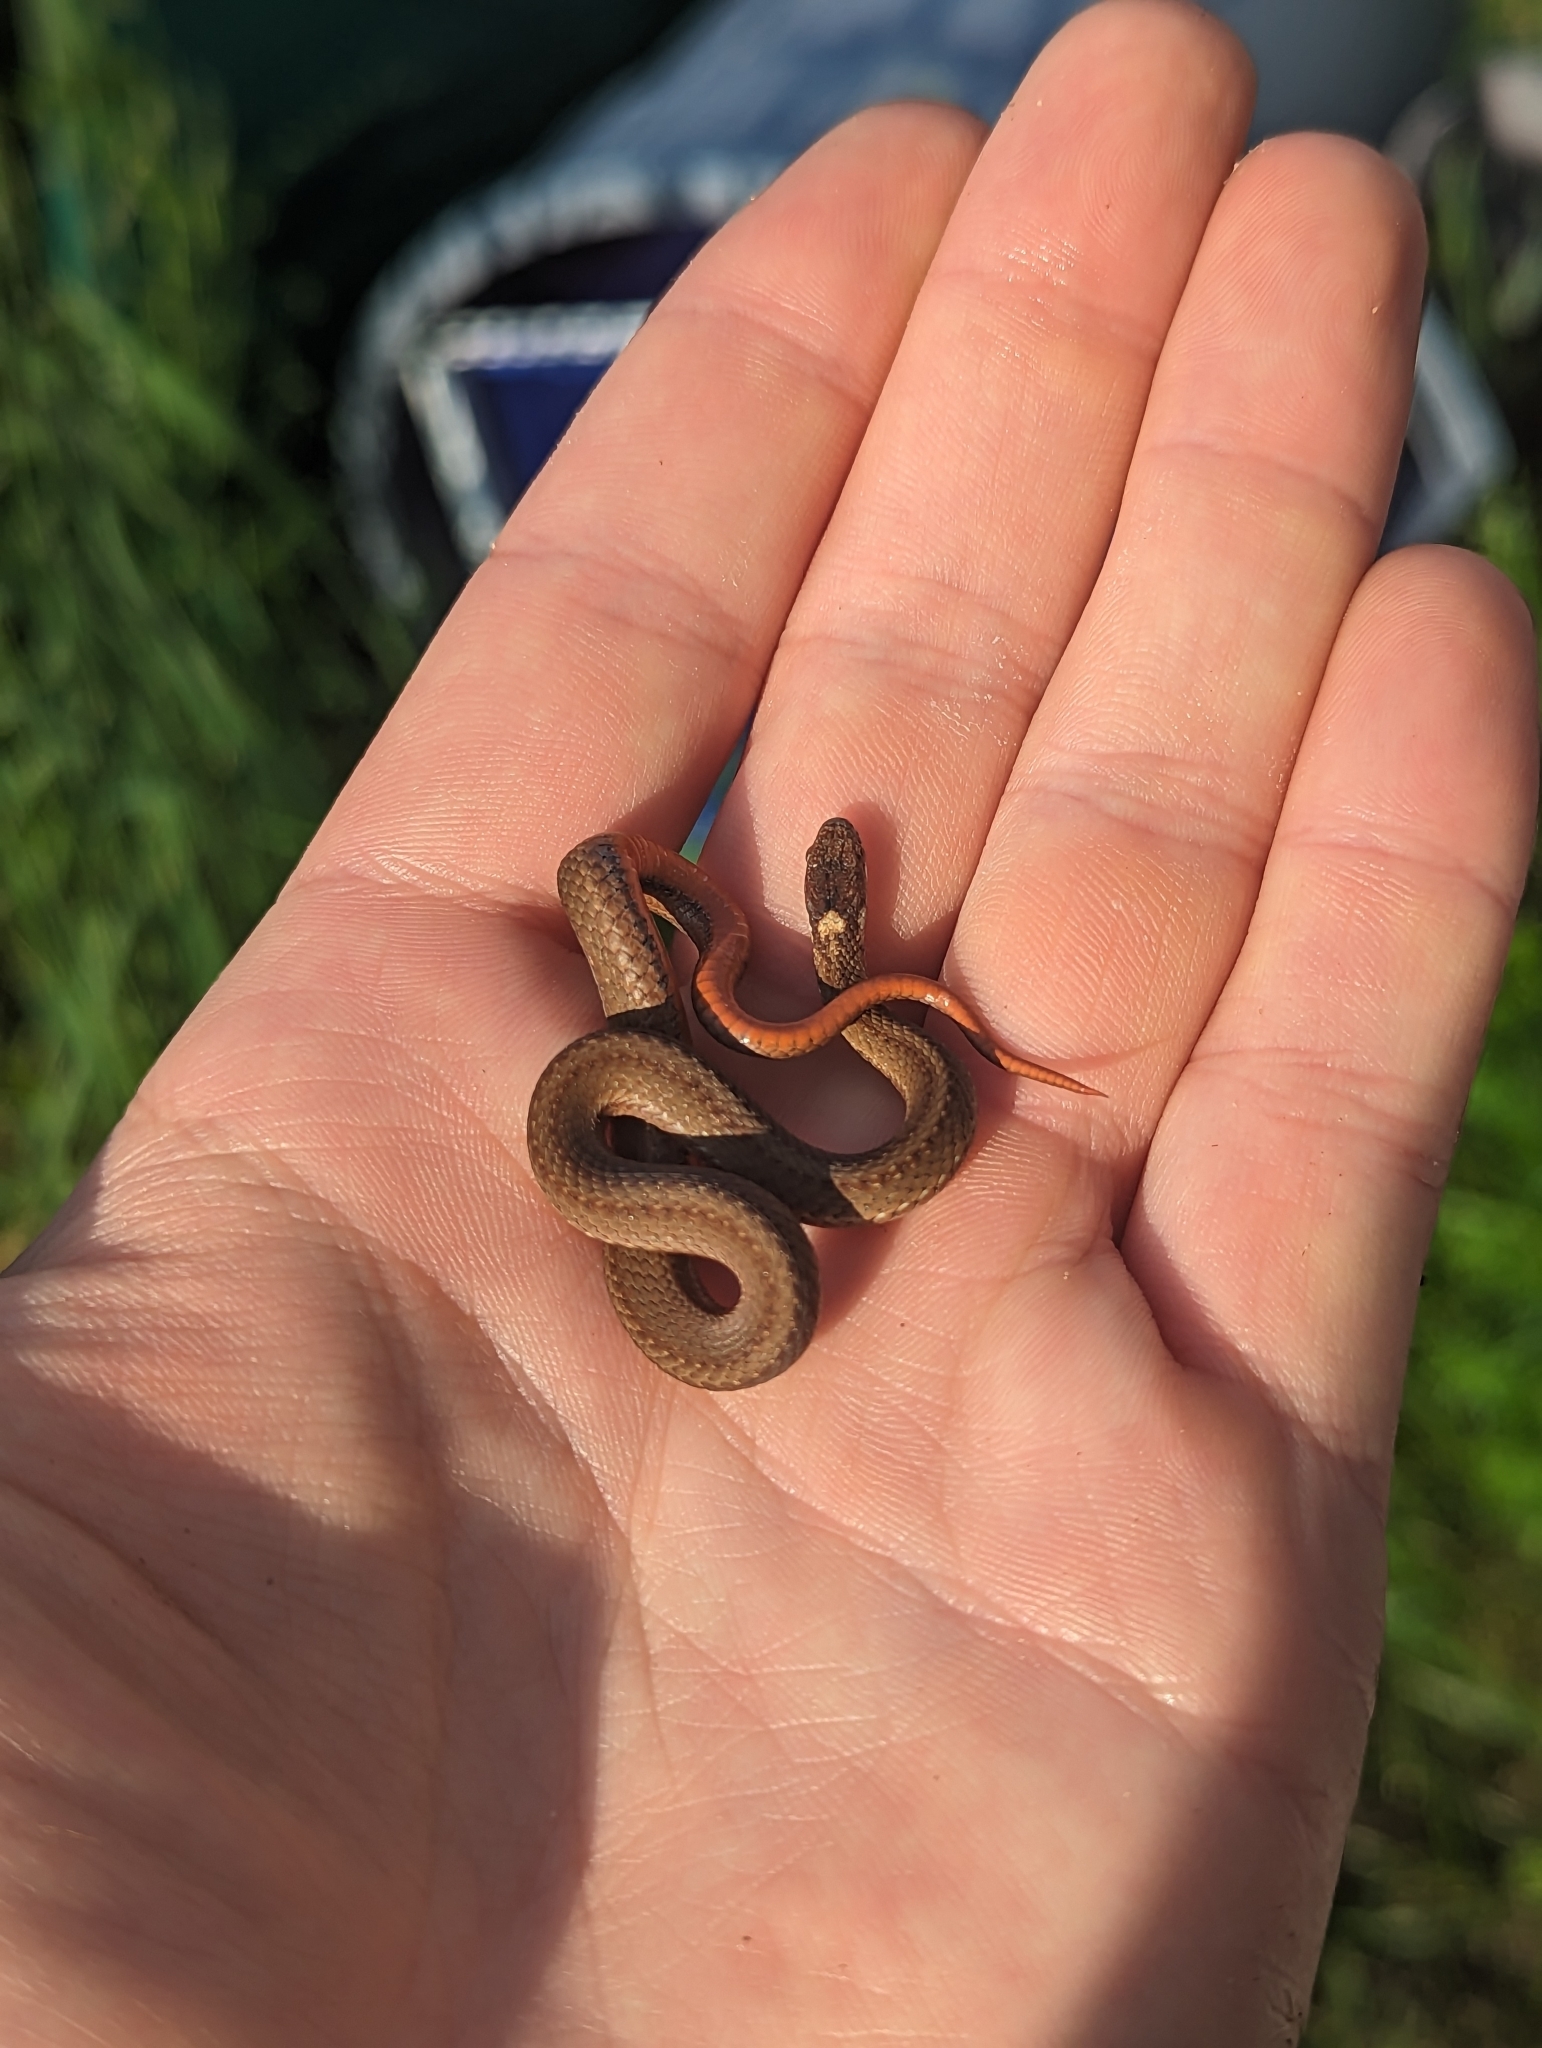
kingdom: Animalia
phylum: Chordata
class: Squamata
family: Colubridae
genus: Storeria
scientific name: Storeria occipitomaculata
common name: Redbelly snake
